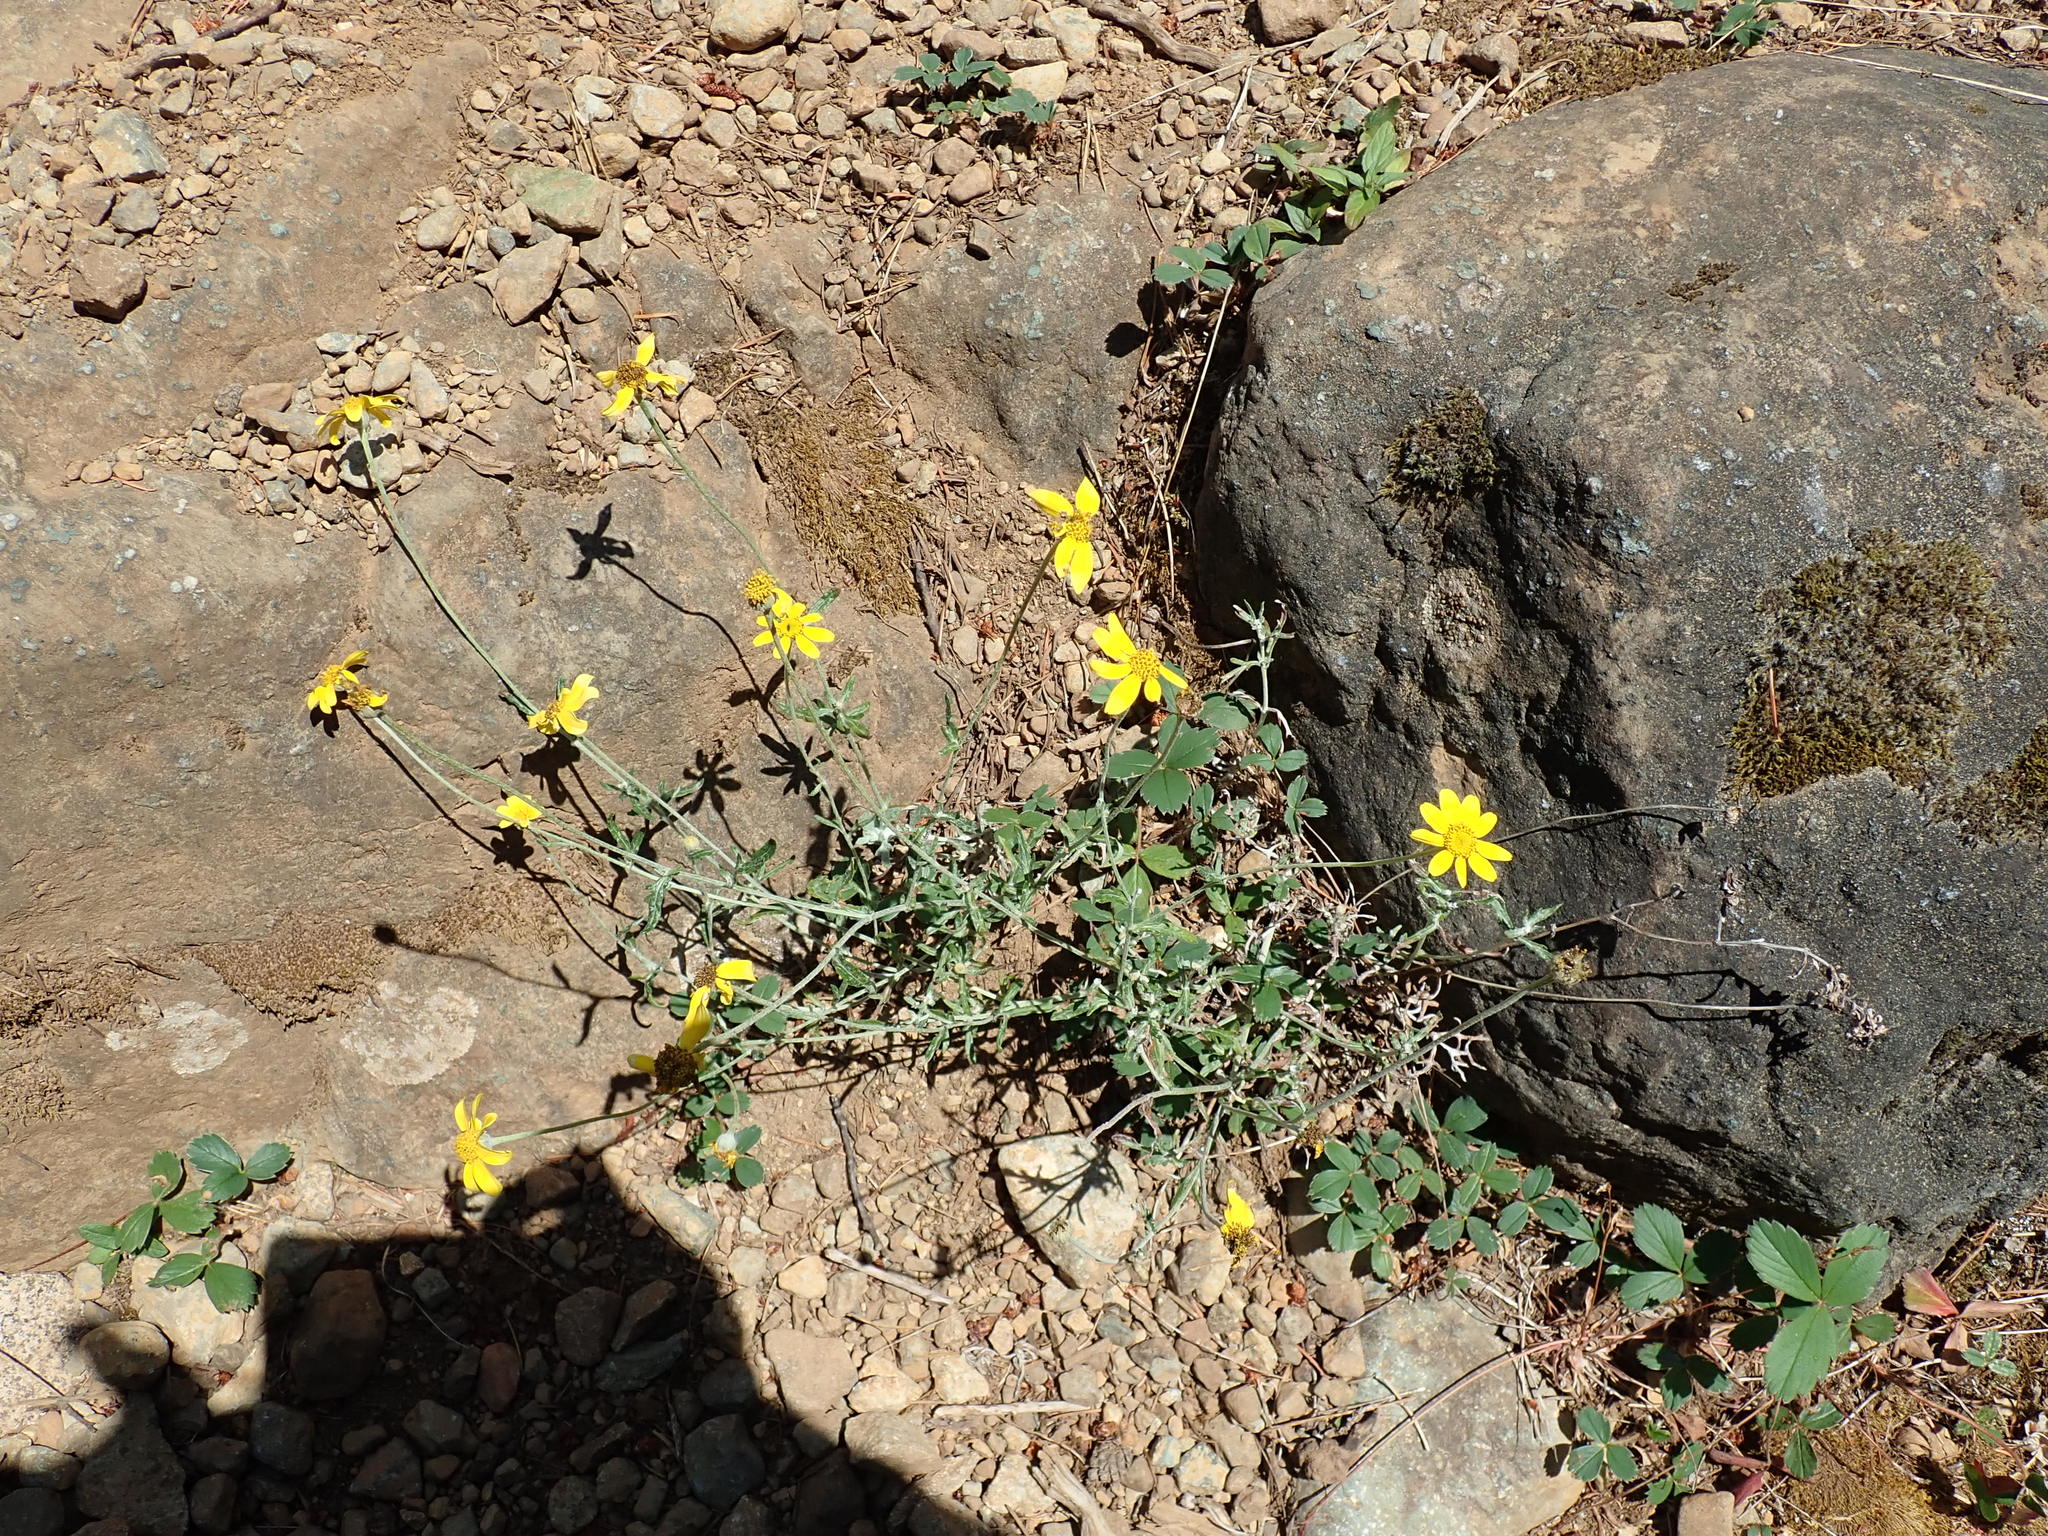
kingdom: Plantae
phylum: Tracheophyta
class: Magnoliopsida
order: Asterales
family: Asteraceae
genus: Eriophyllum
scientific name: Eriophyllum lanatum
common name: Common woolly-sunflower
